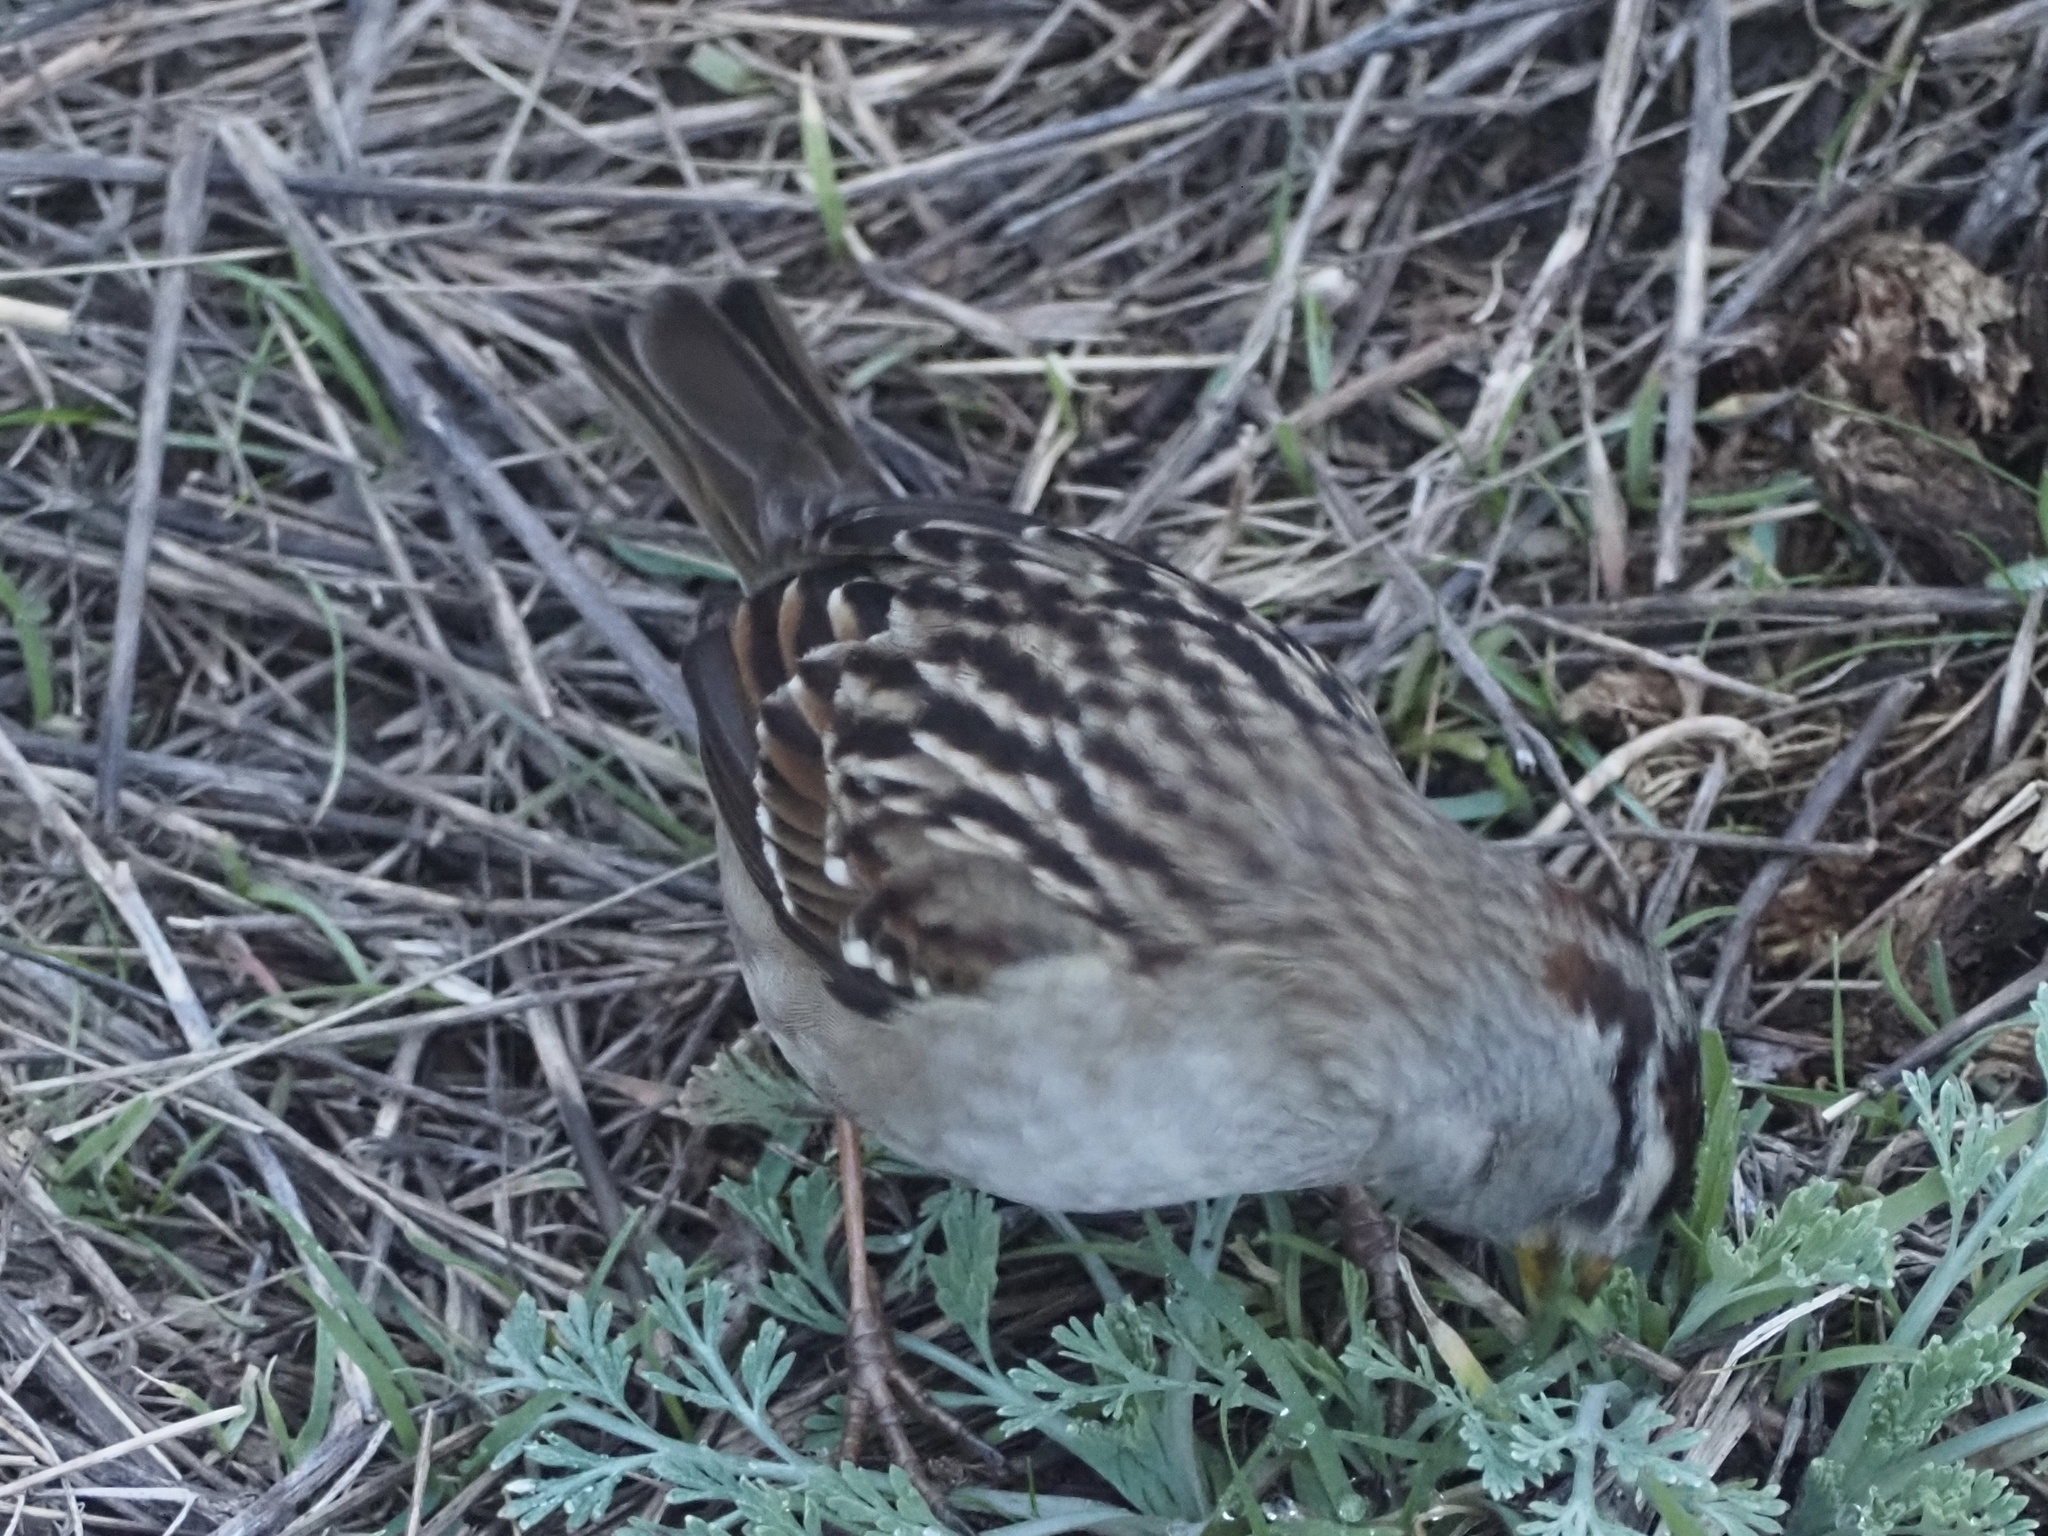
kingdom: Animalia
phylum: Chordata
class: Aves
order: Passeriformes
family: Passerellidae
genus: Zonotrichia
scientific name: Zonotrichia leucophrys
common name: White-crowned sparrow
